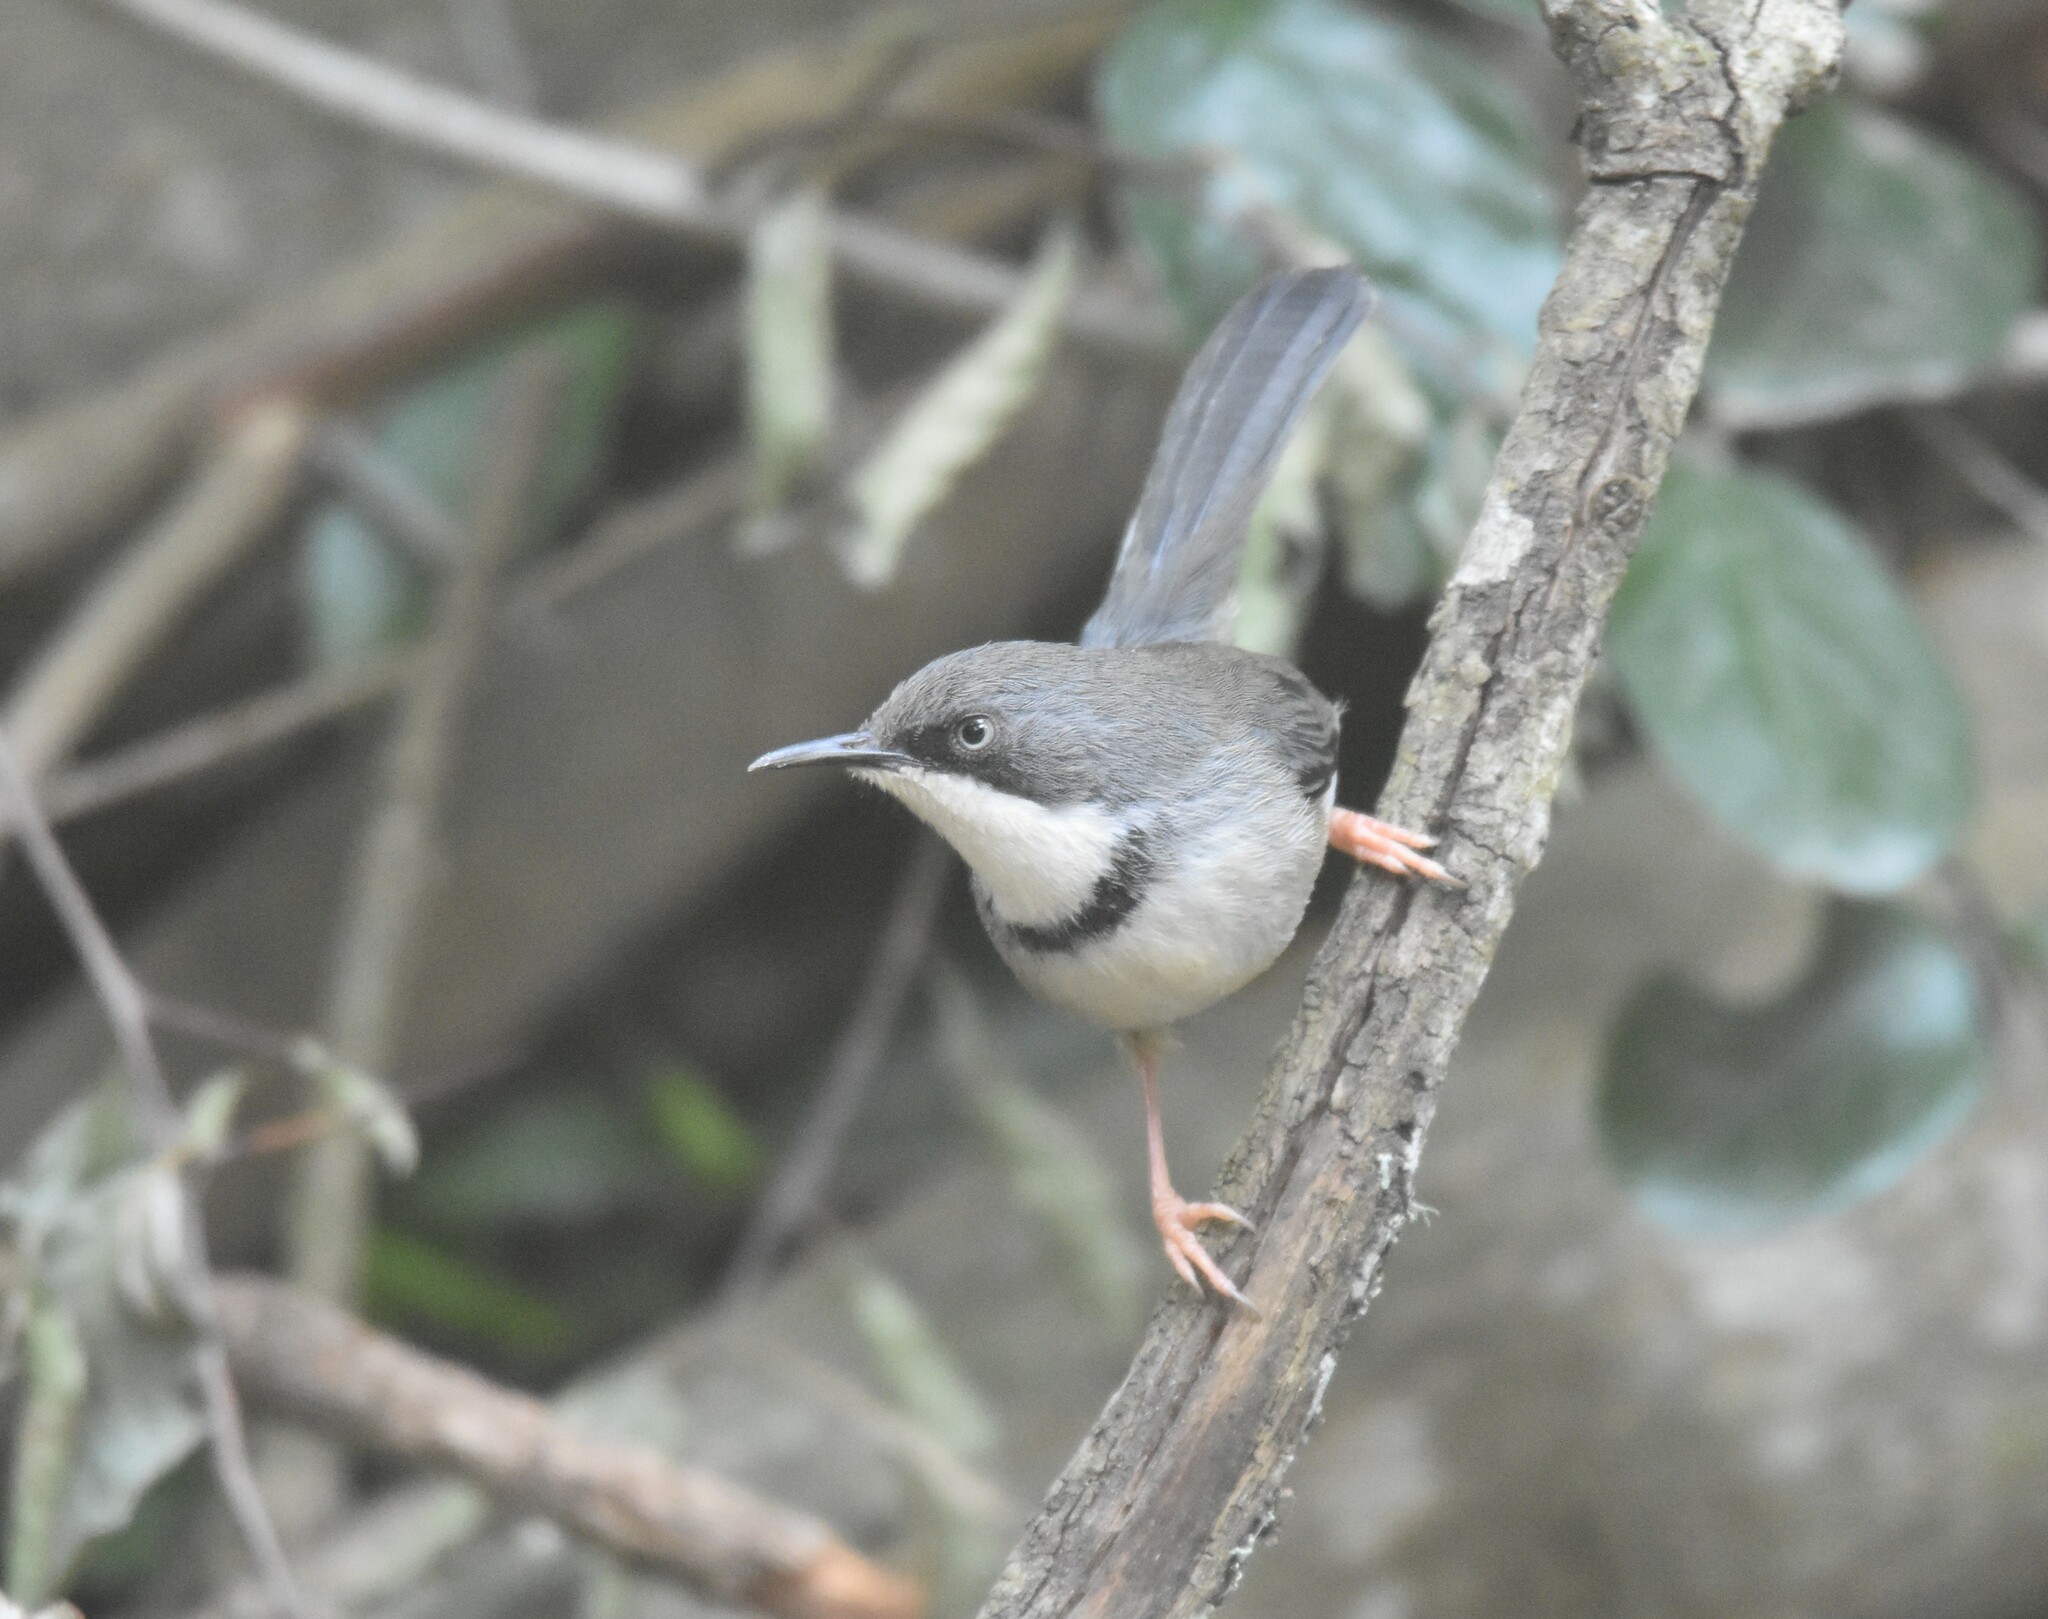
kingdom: Animalia
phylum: Chordata
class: Aves
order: Passeriformes
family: Cisticolidae
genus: Apalis
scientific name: Apalis thoracica
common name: Bar-throated apalis
